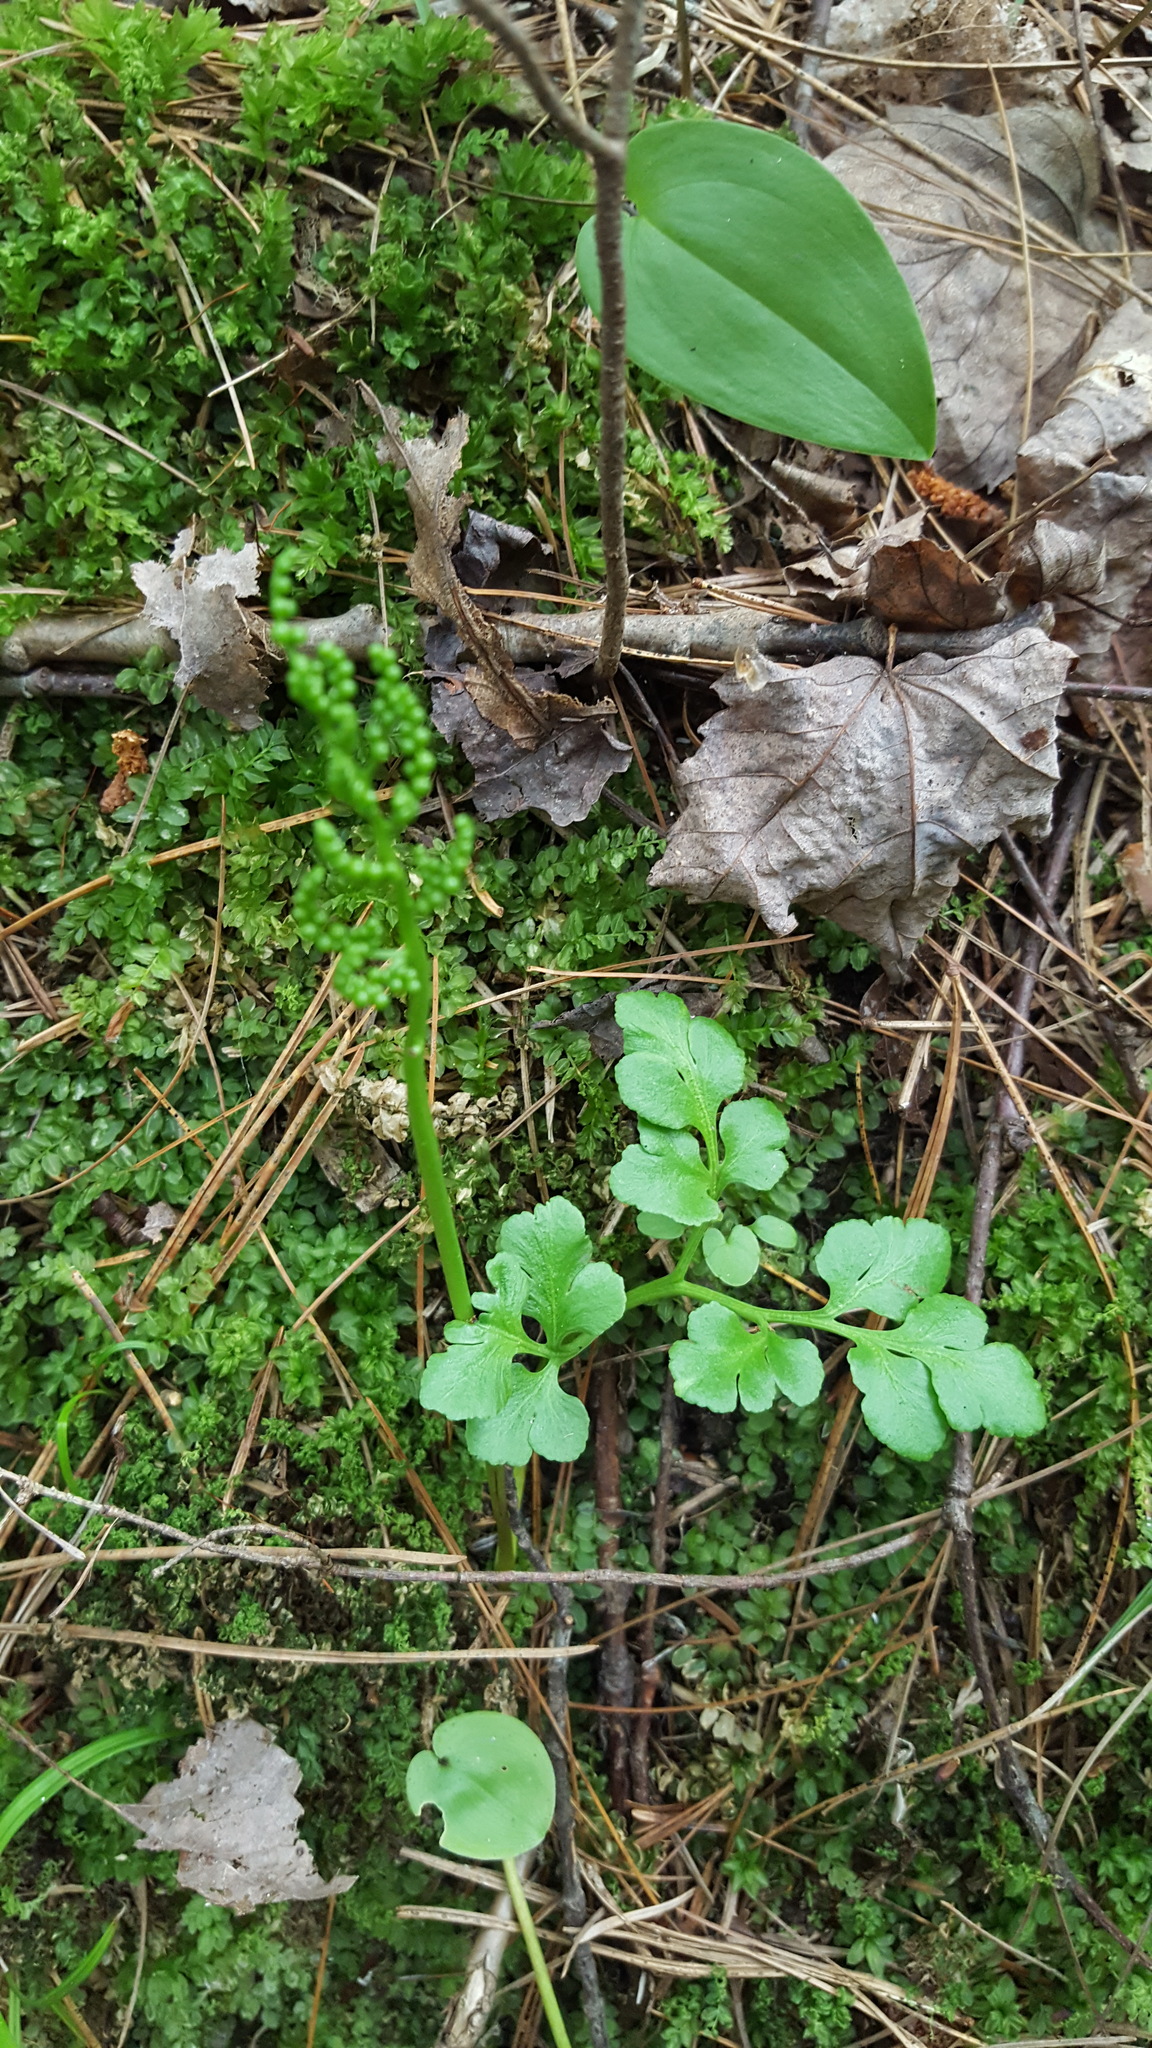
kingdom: Plantae
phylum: Tracheophyta
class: Polypodiopsida
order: Ophioglossales
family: Ophioglossaceae
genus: Sceptridium
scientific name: Sceptridium multifidum
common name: Leathery grape fern
